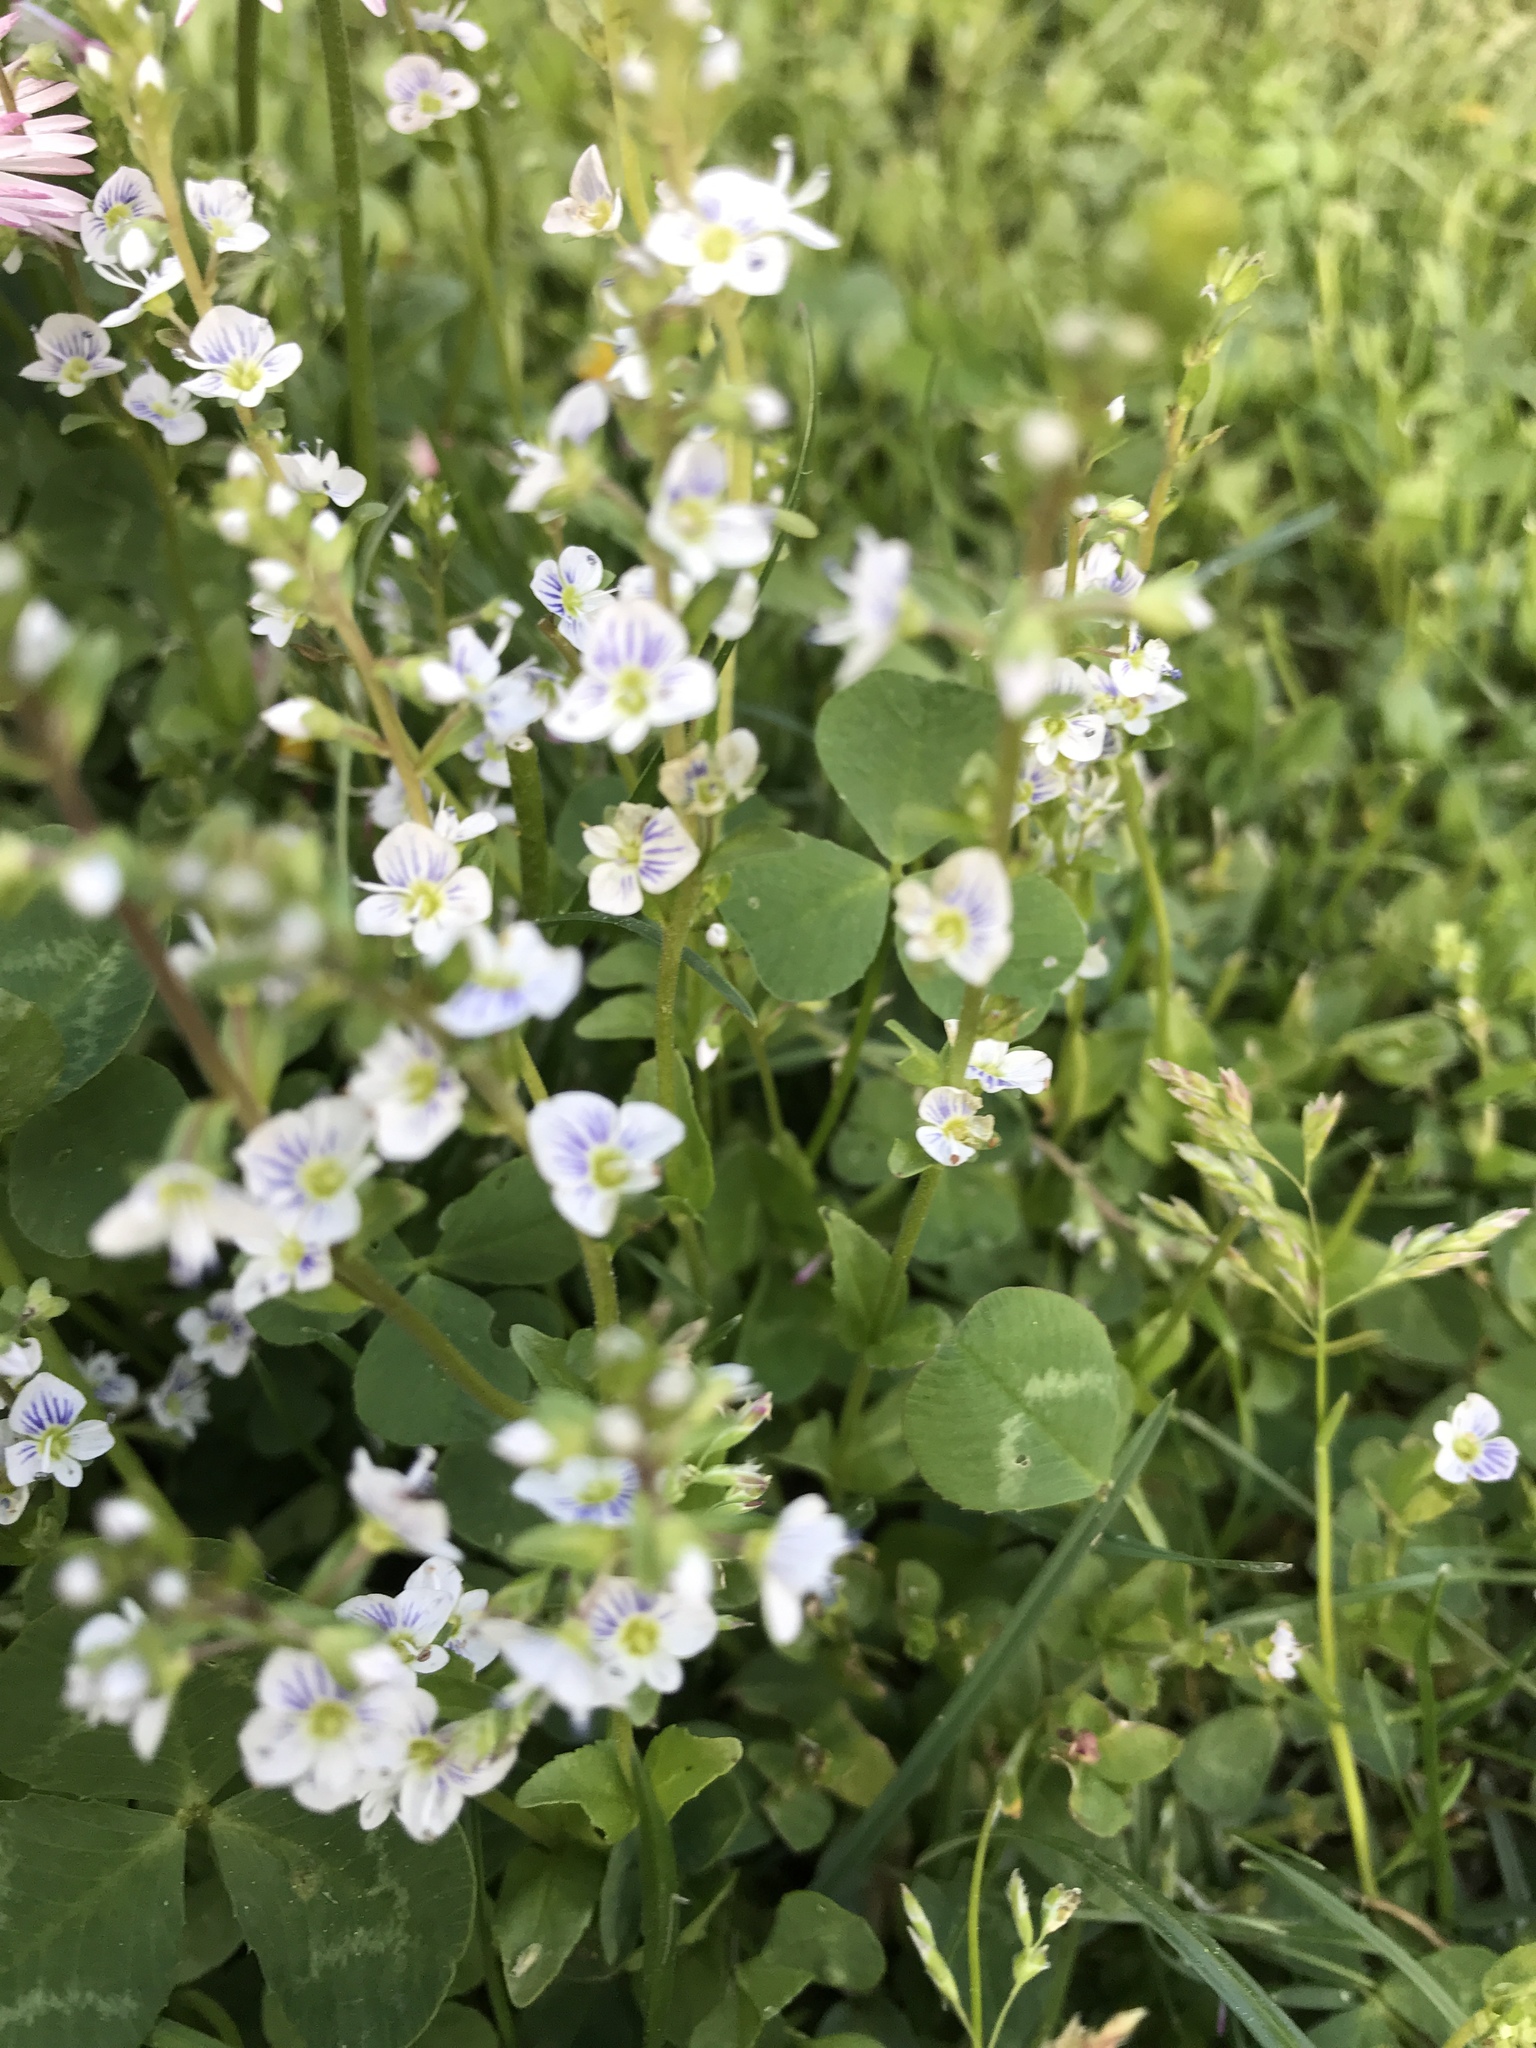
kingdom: Plantae
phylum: Tracheophyta
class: Magnoliopsida
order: Lamiales
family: Plantaginaceae
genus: Veronica
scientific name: Veronica serpyllifolia
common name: Thyme-leaved speedwell
